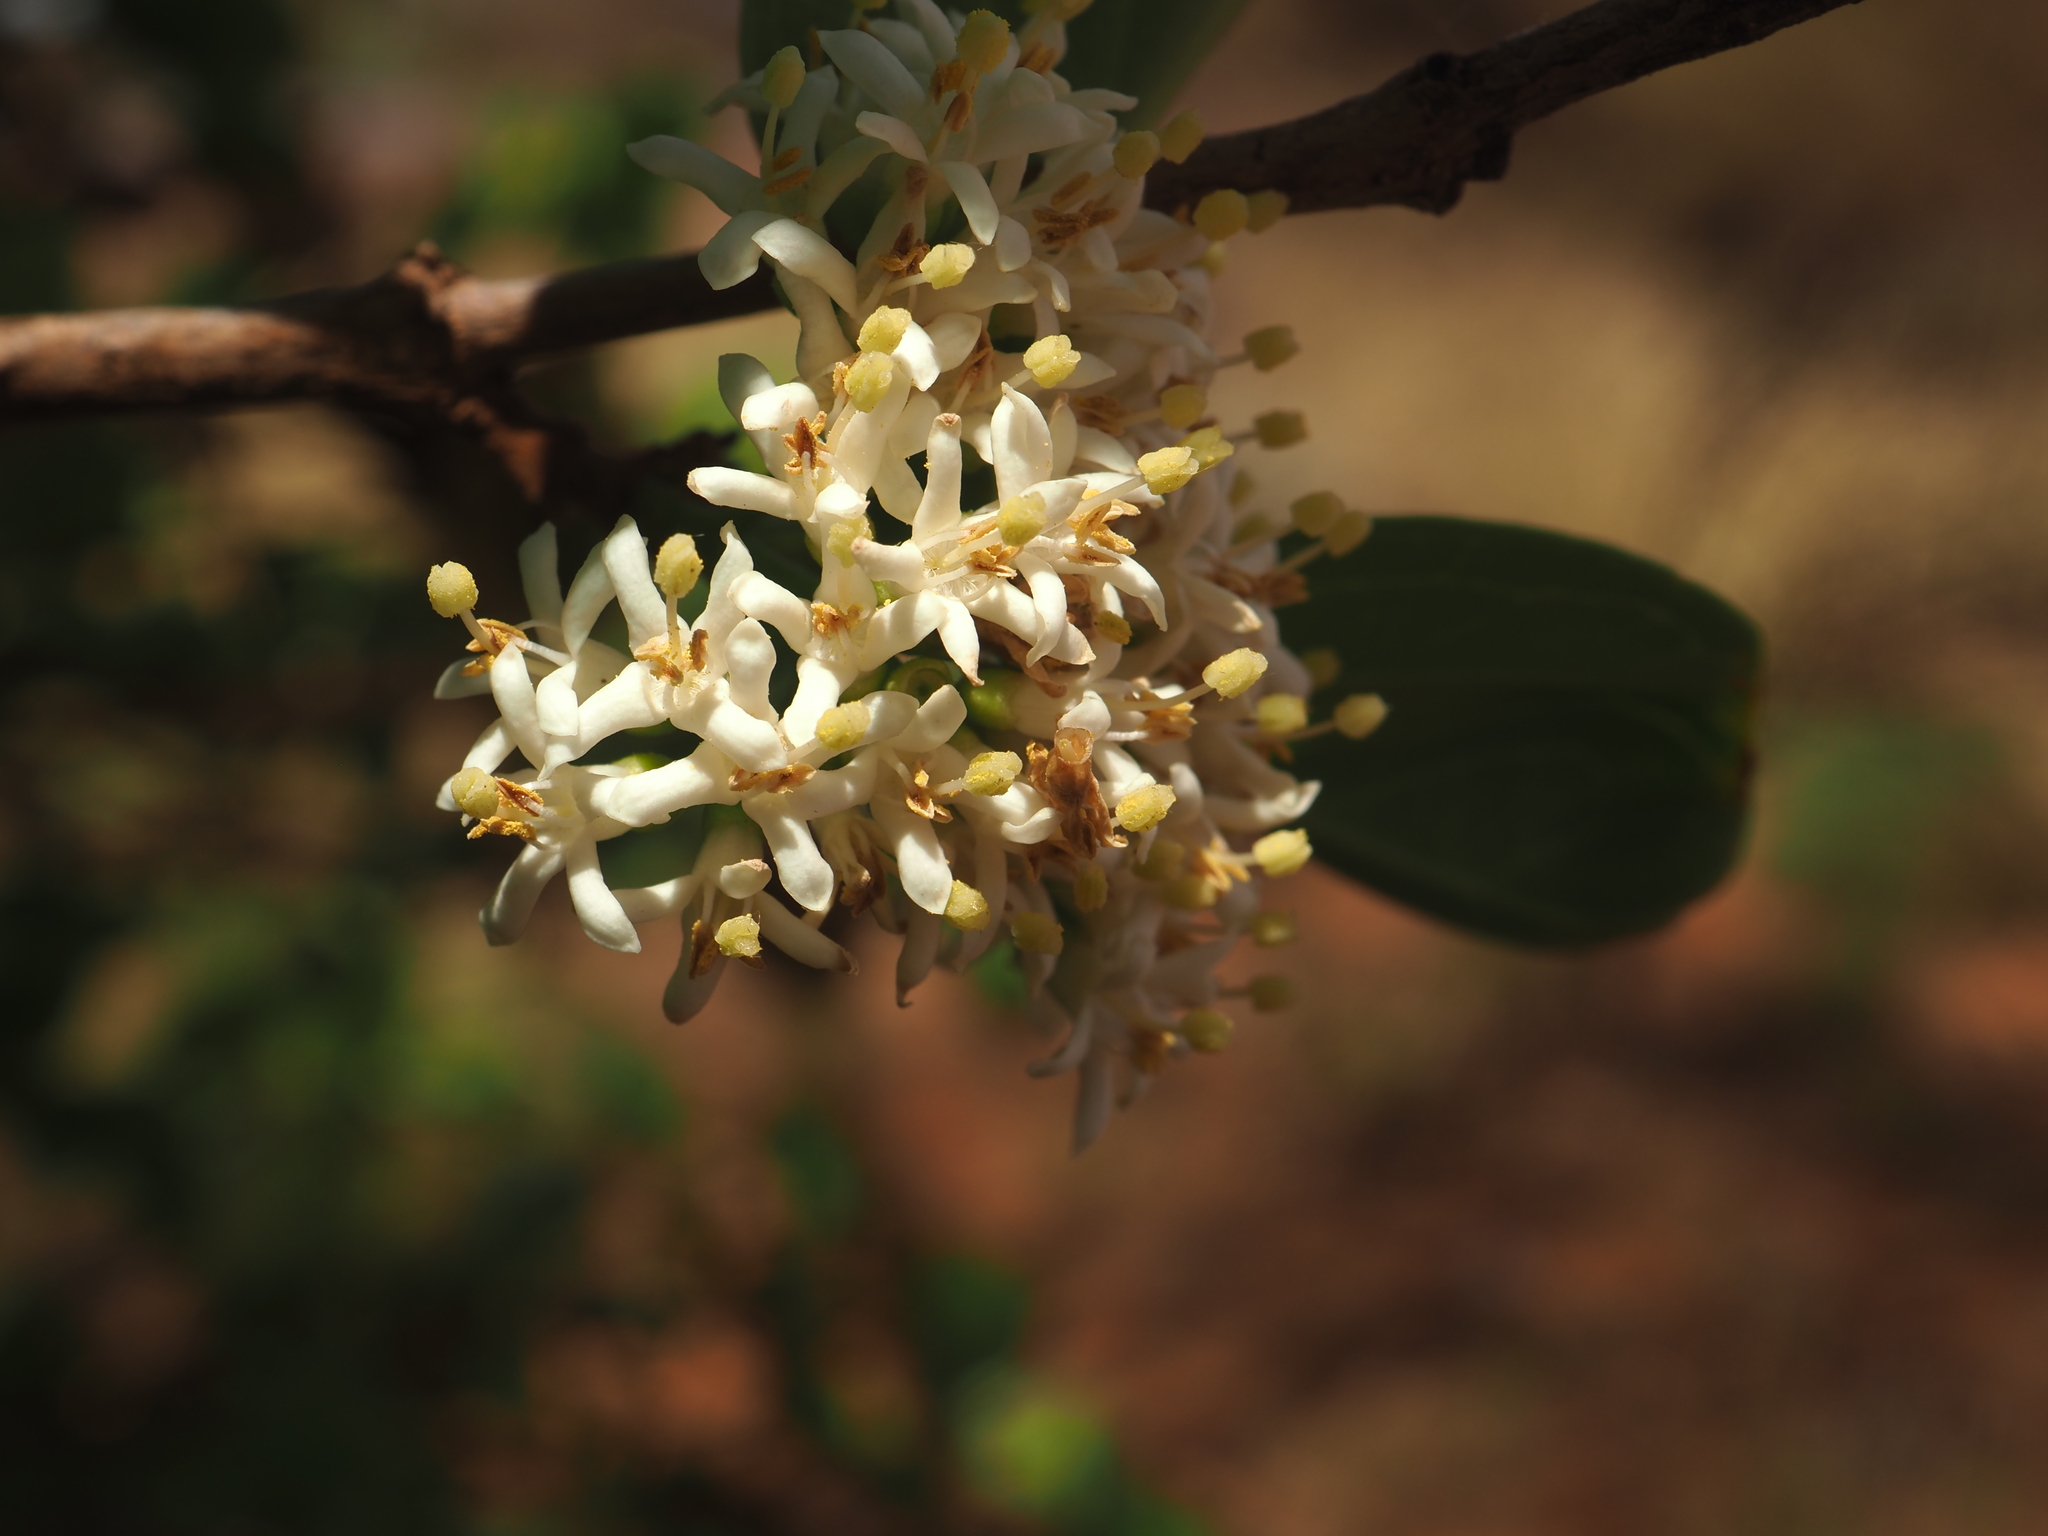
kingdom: Plantae
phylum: Tracheophyta
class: Magnoliopsida
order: Gentianales
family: Rubiaceae
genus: Psydrax
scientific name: Psydrax latifolius
